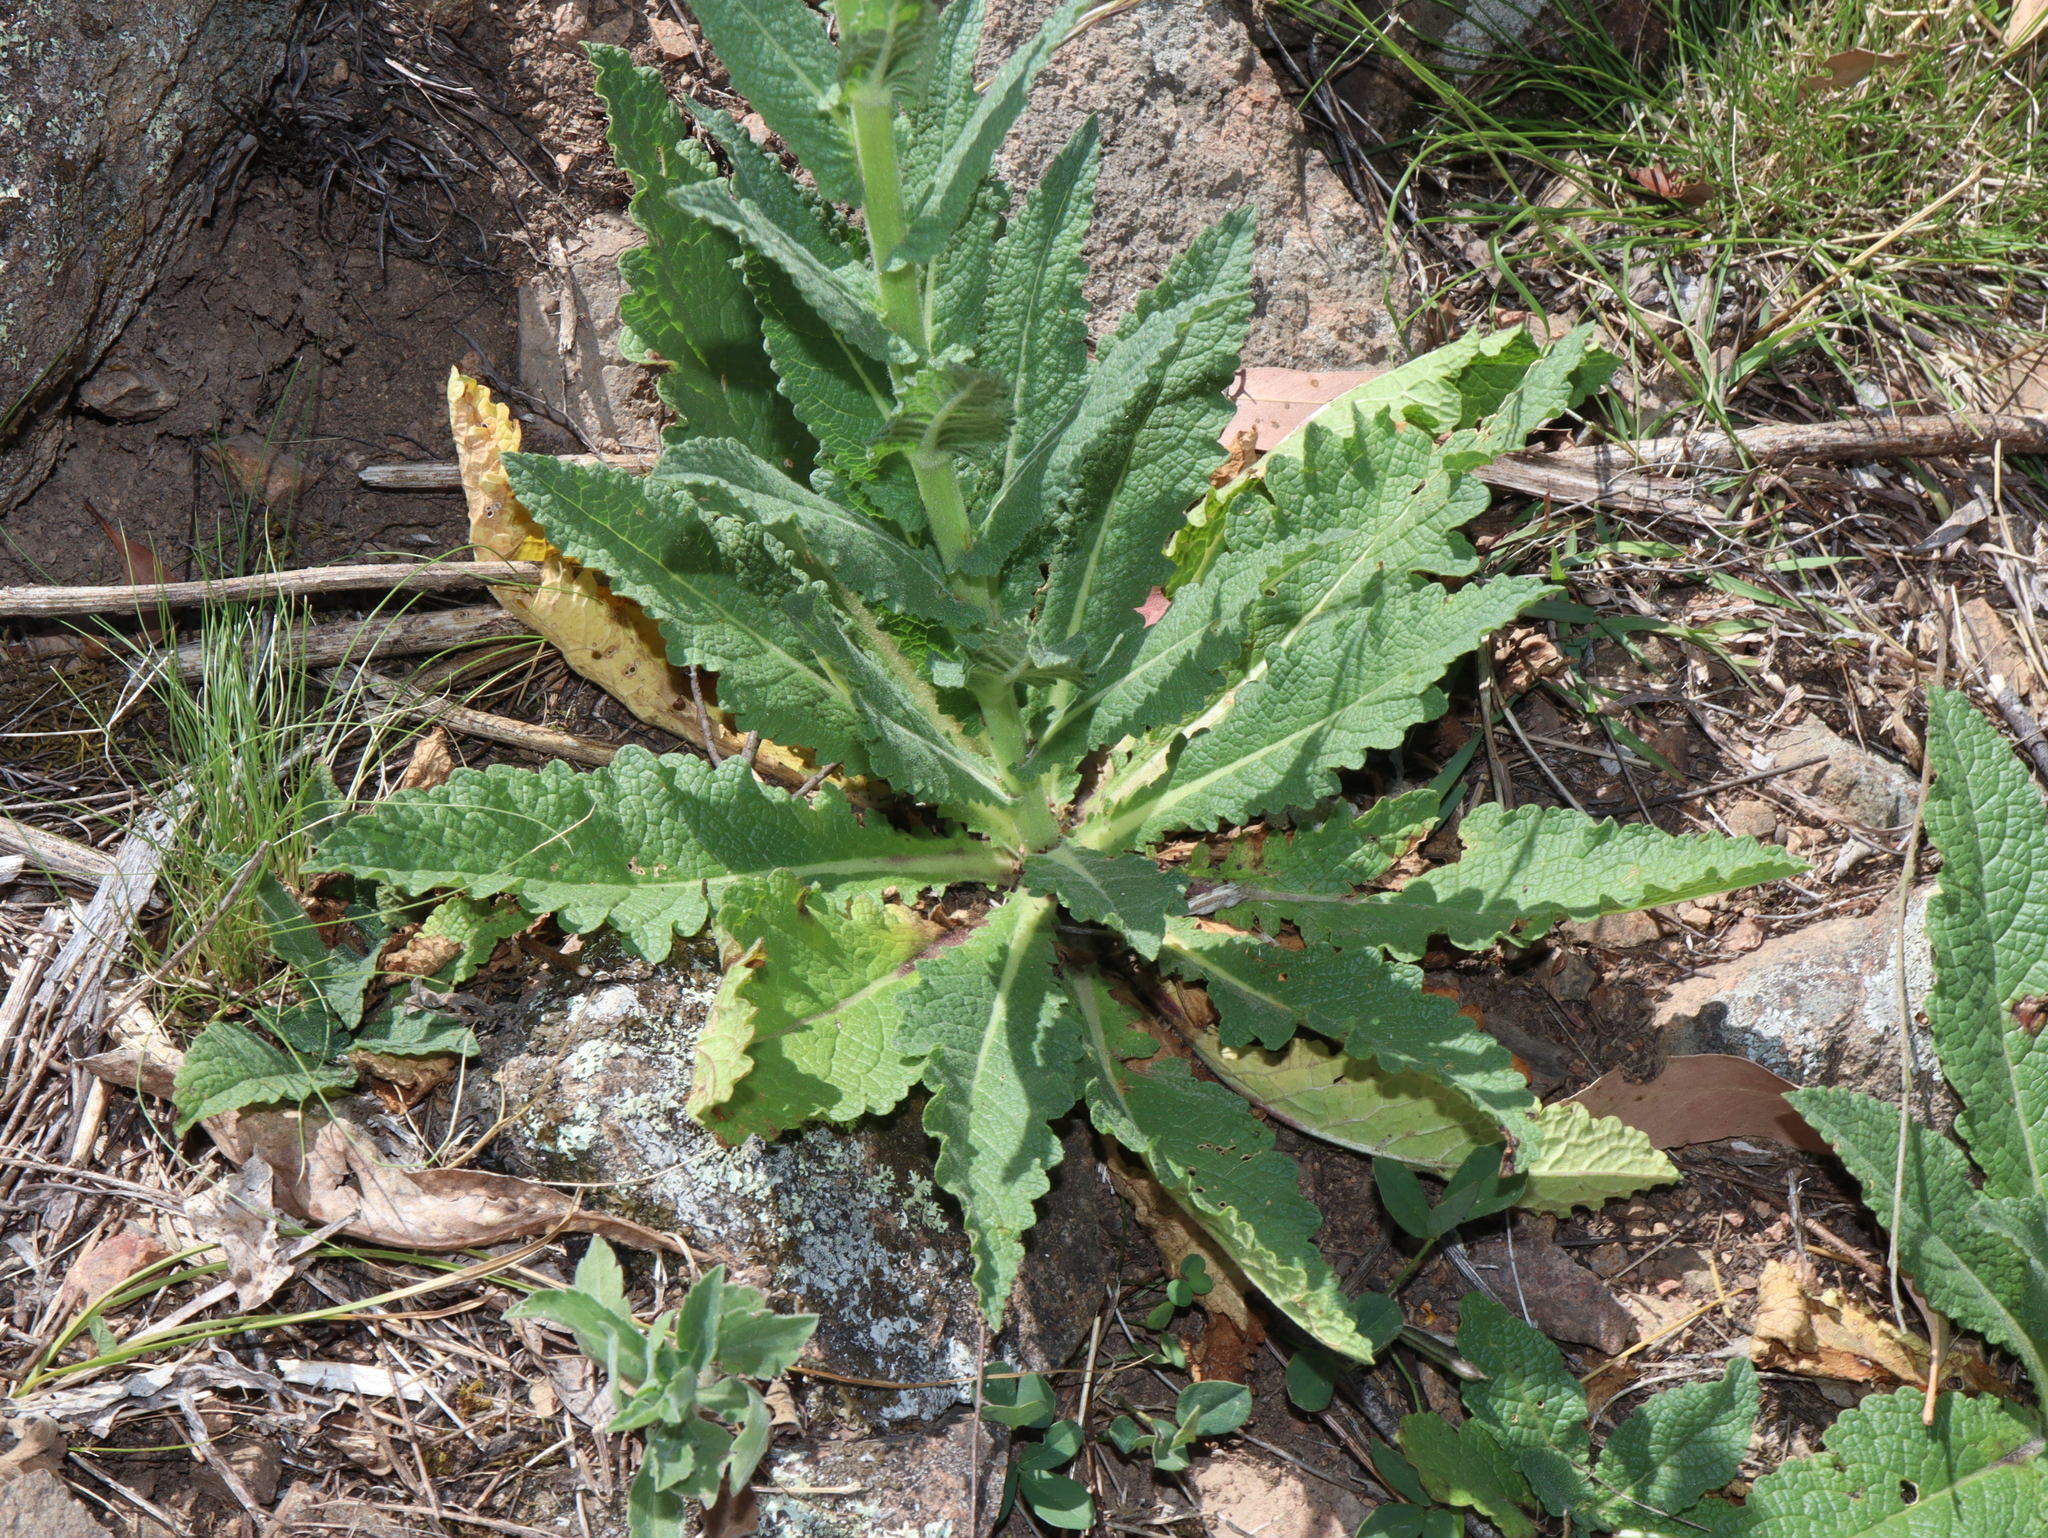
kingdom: Plantae
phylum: Tracheophyta
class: Magnoliopsida
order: Lamiales
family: Scrophulariaceae
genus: Verbascum
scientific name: Verbascum virgatum
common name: Twiggy mullein
